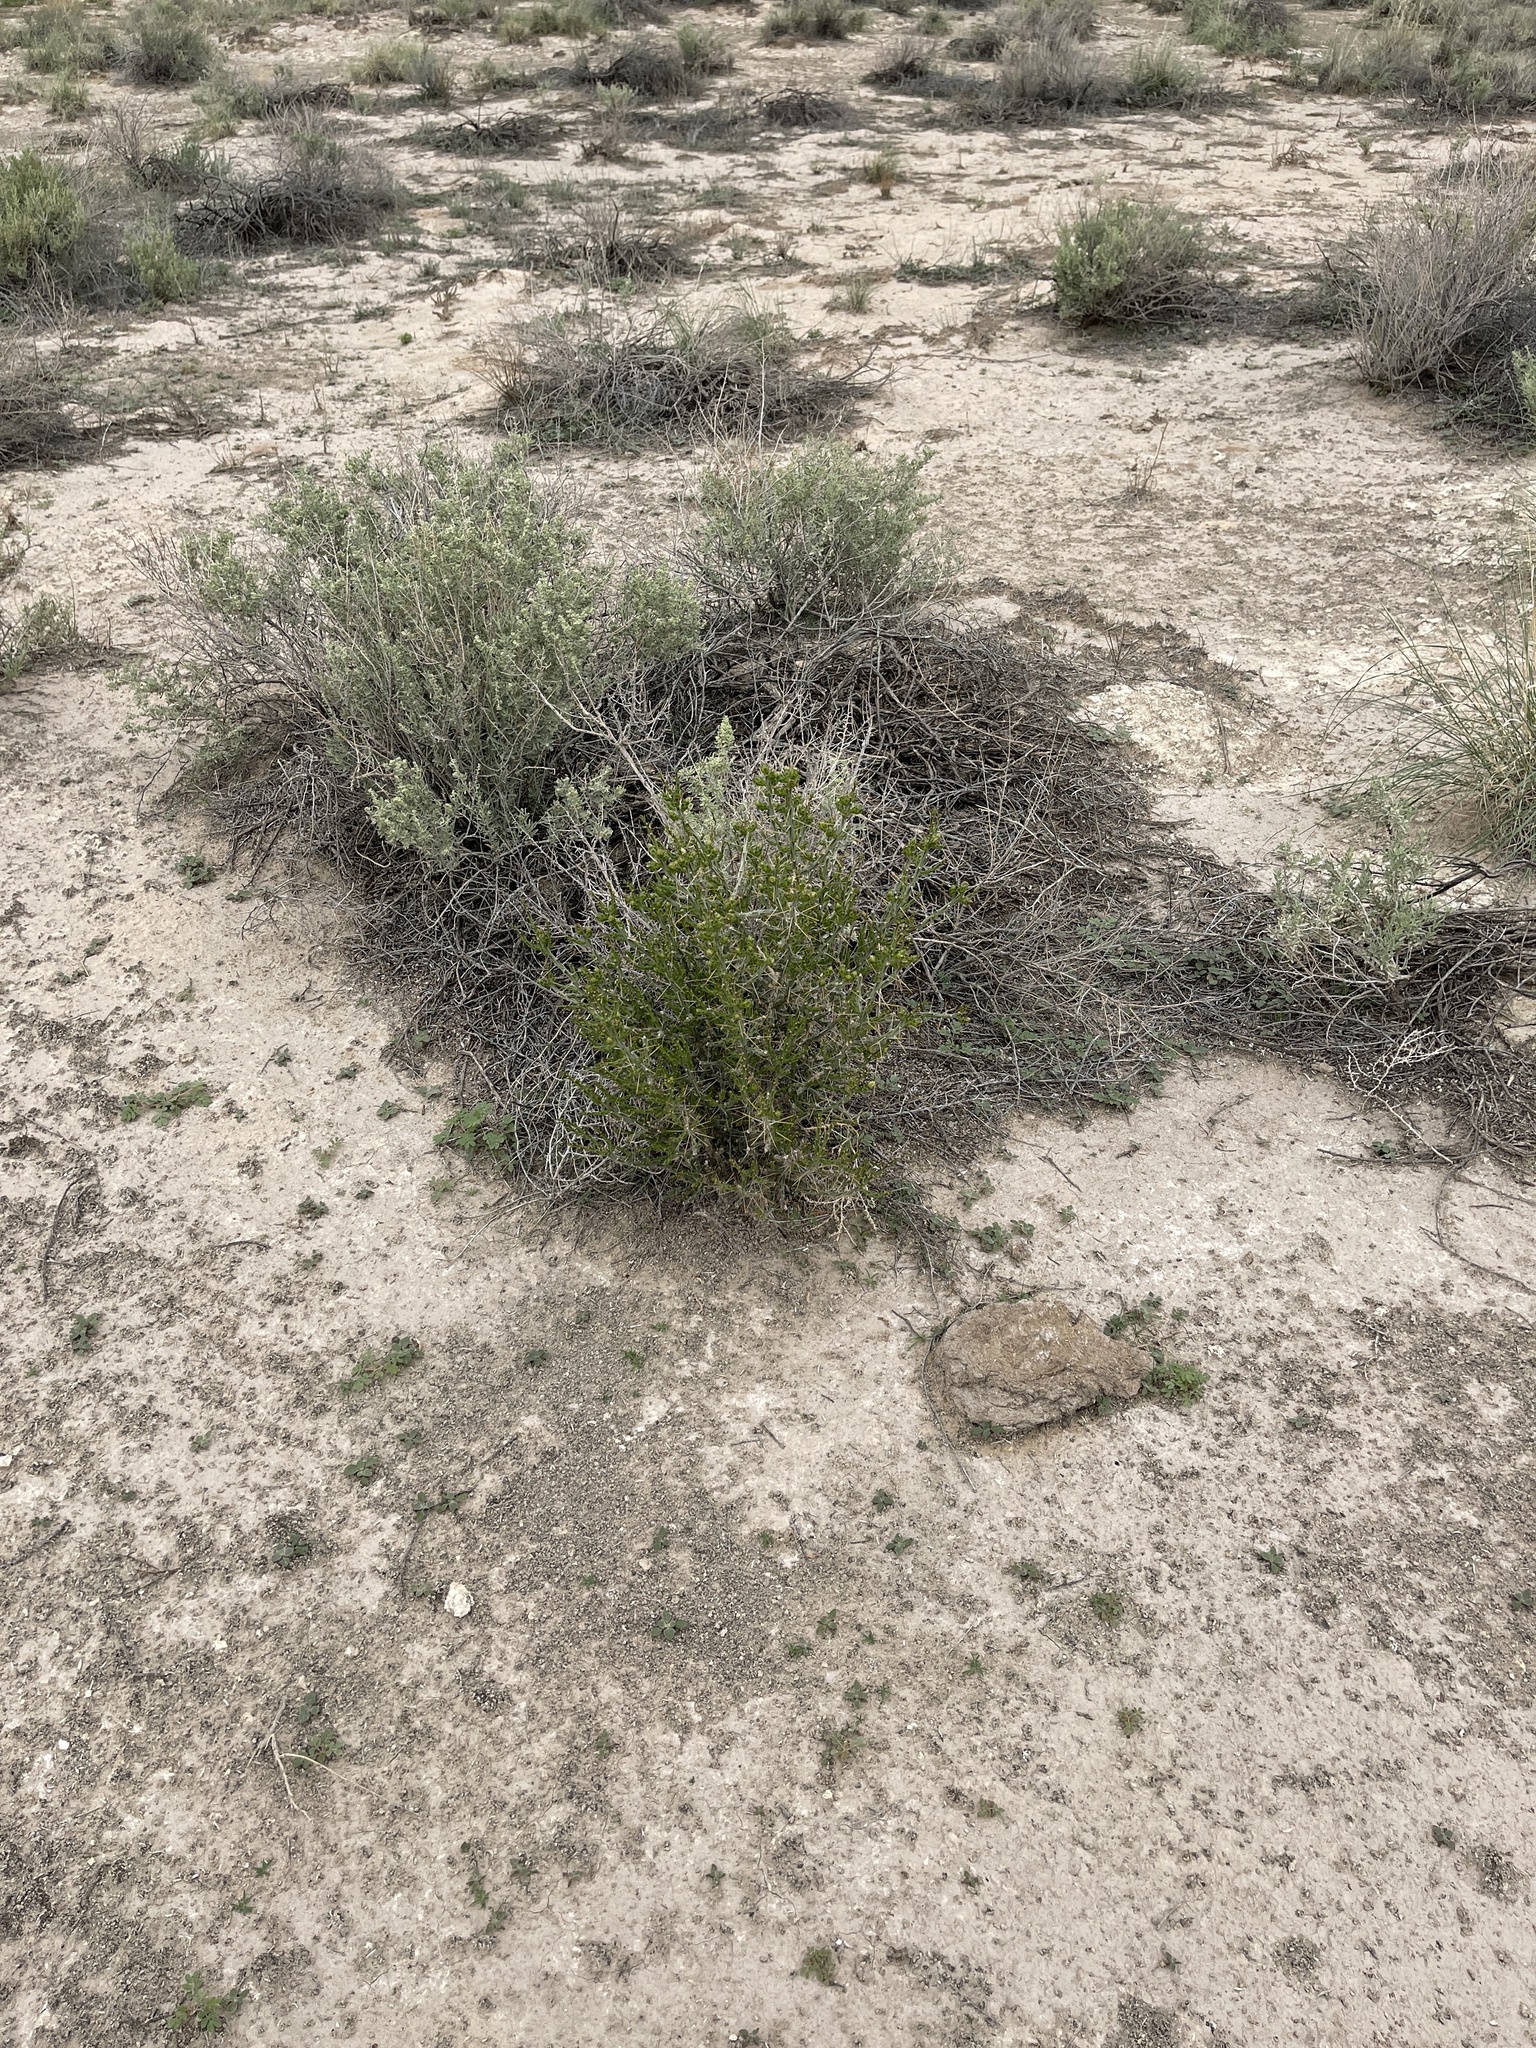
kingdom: Plantae
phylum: Tracheophyta
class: Magnoliopsida
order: Caryophyllales
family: Cactaceae
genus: Cylindropuntia
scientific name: Cylindropuntia leptocaulis
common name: Christmas cactus
